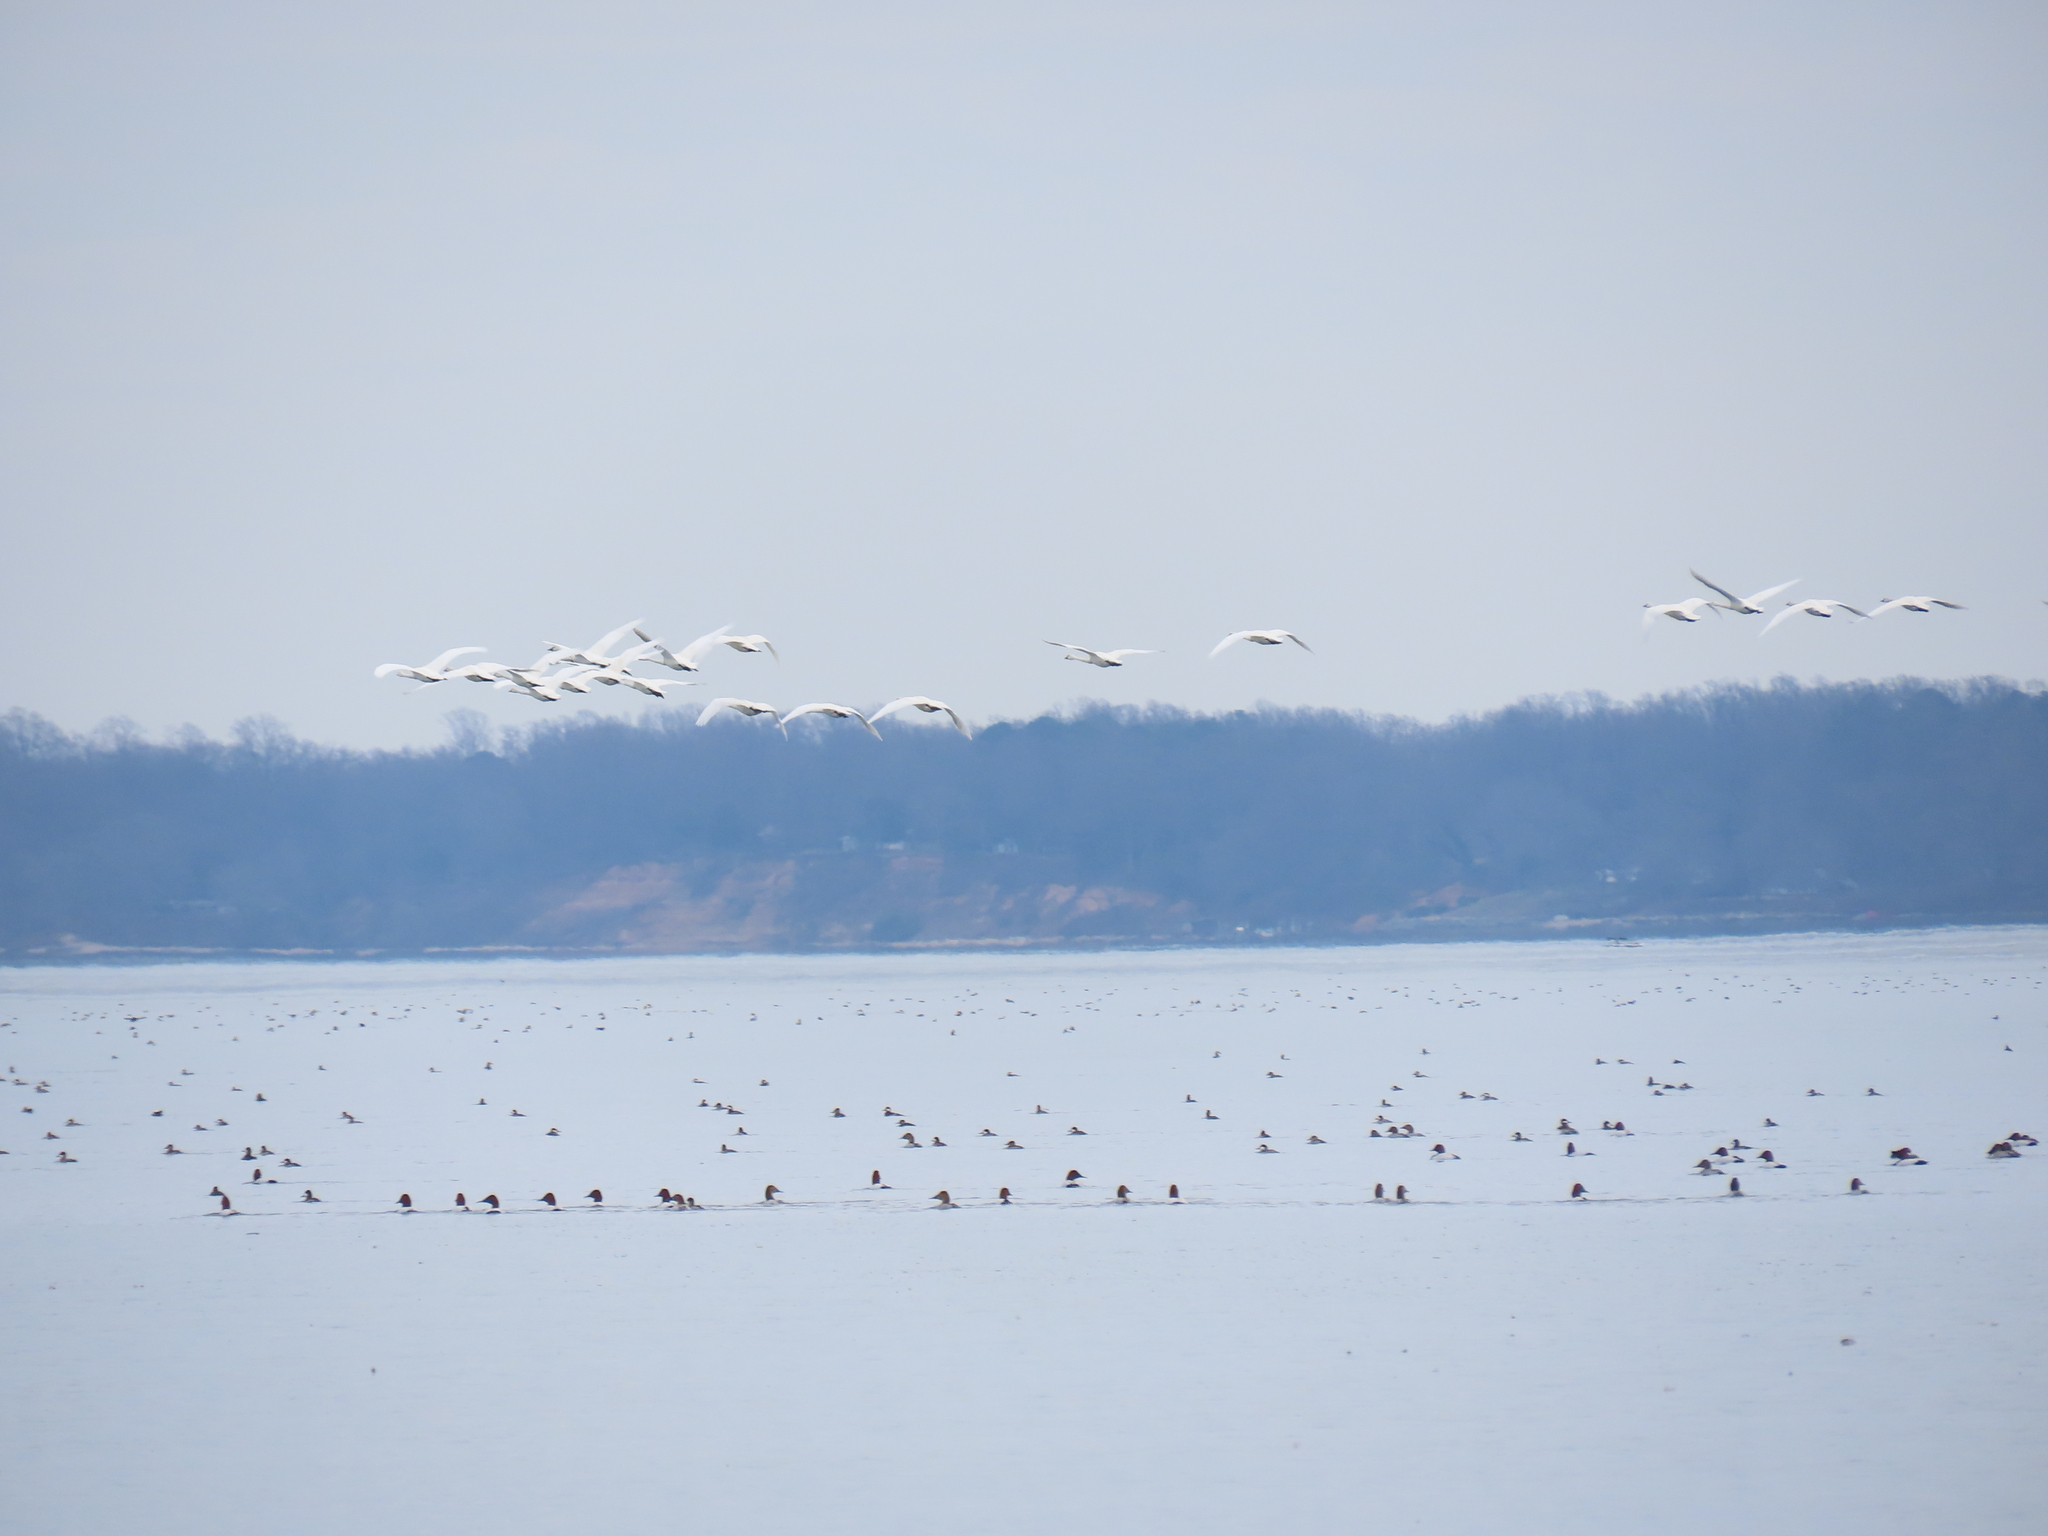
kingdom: Animalia
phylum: Chordata
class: Aves
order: Anseriformes
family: Anatidae
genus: Aythya
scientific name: Aythya valisineria
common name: Canvasback
